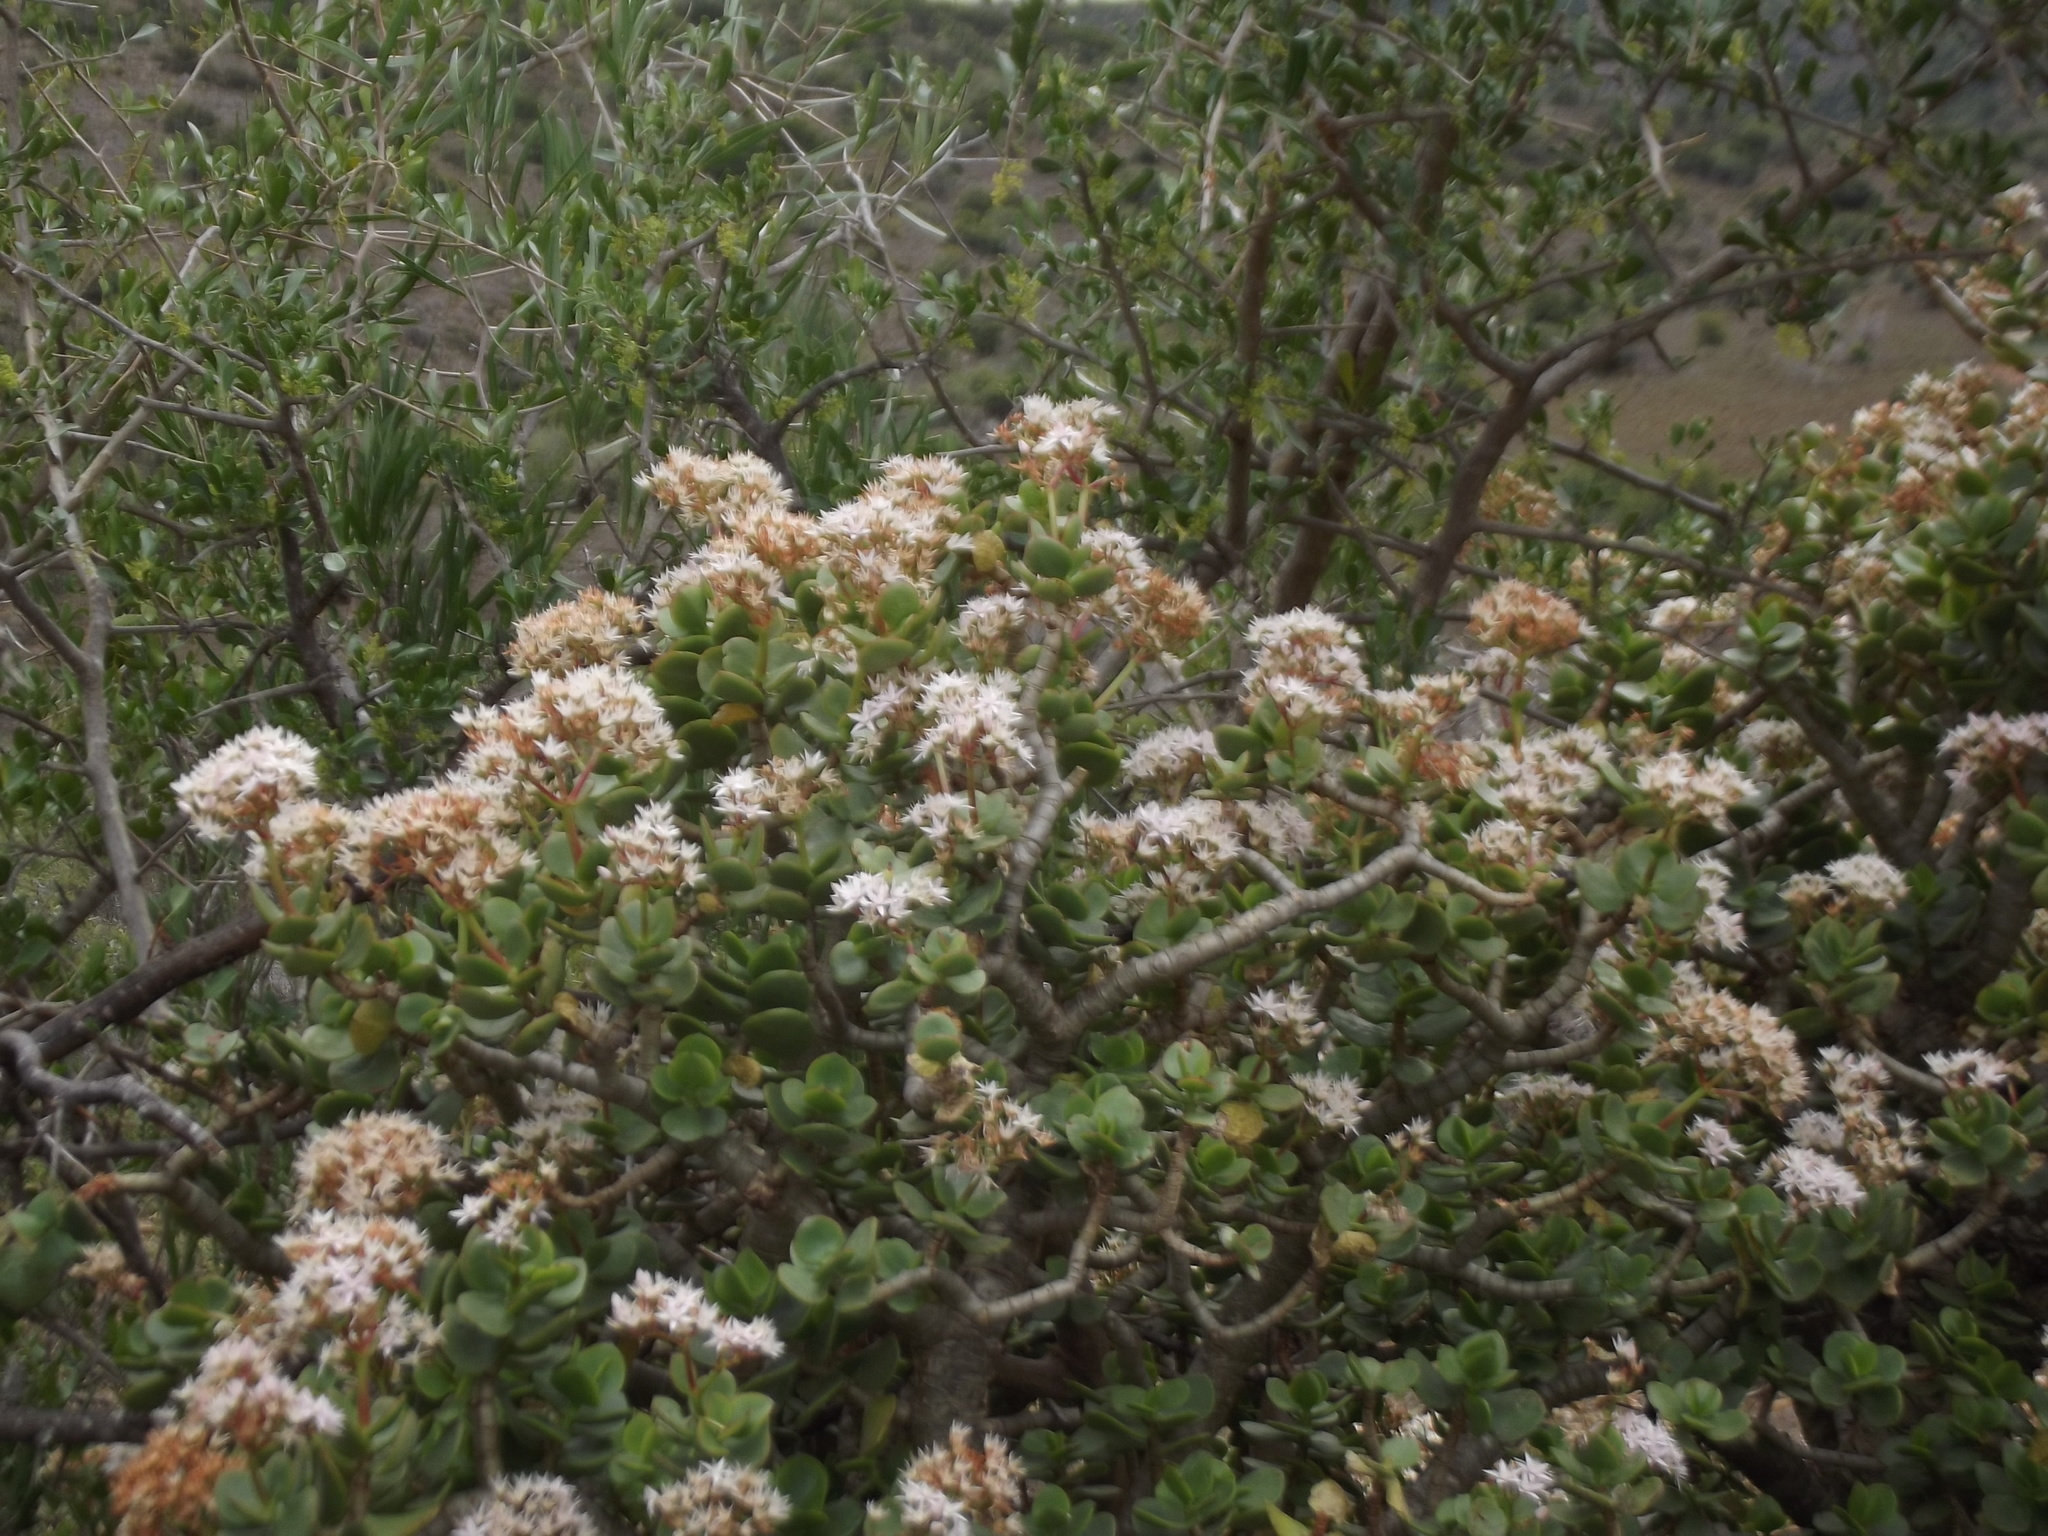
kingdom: Plantae
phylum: Tracheophyta
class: Magnoliopsida
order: Saxifragales
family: Crassulaceae
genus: Crassula
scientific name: Crassula ovata
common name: Jade plant
